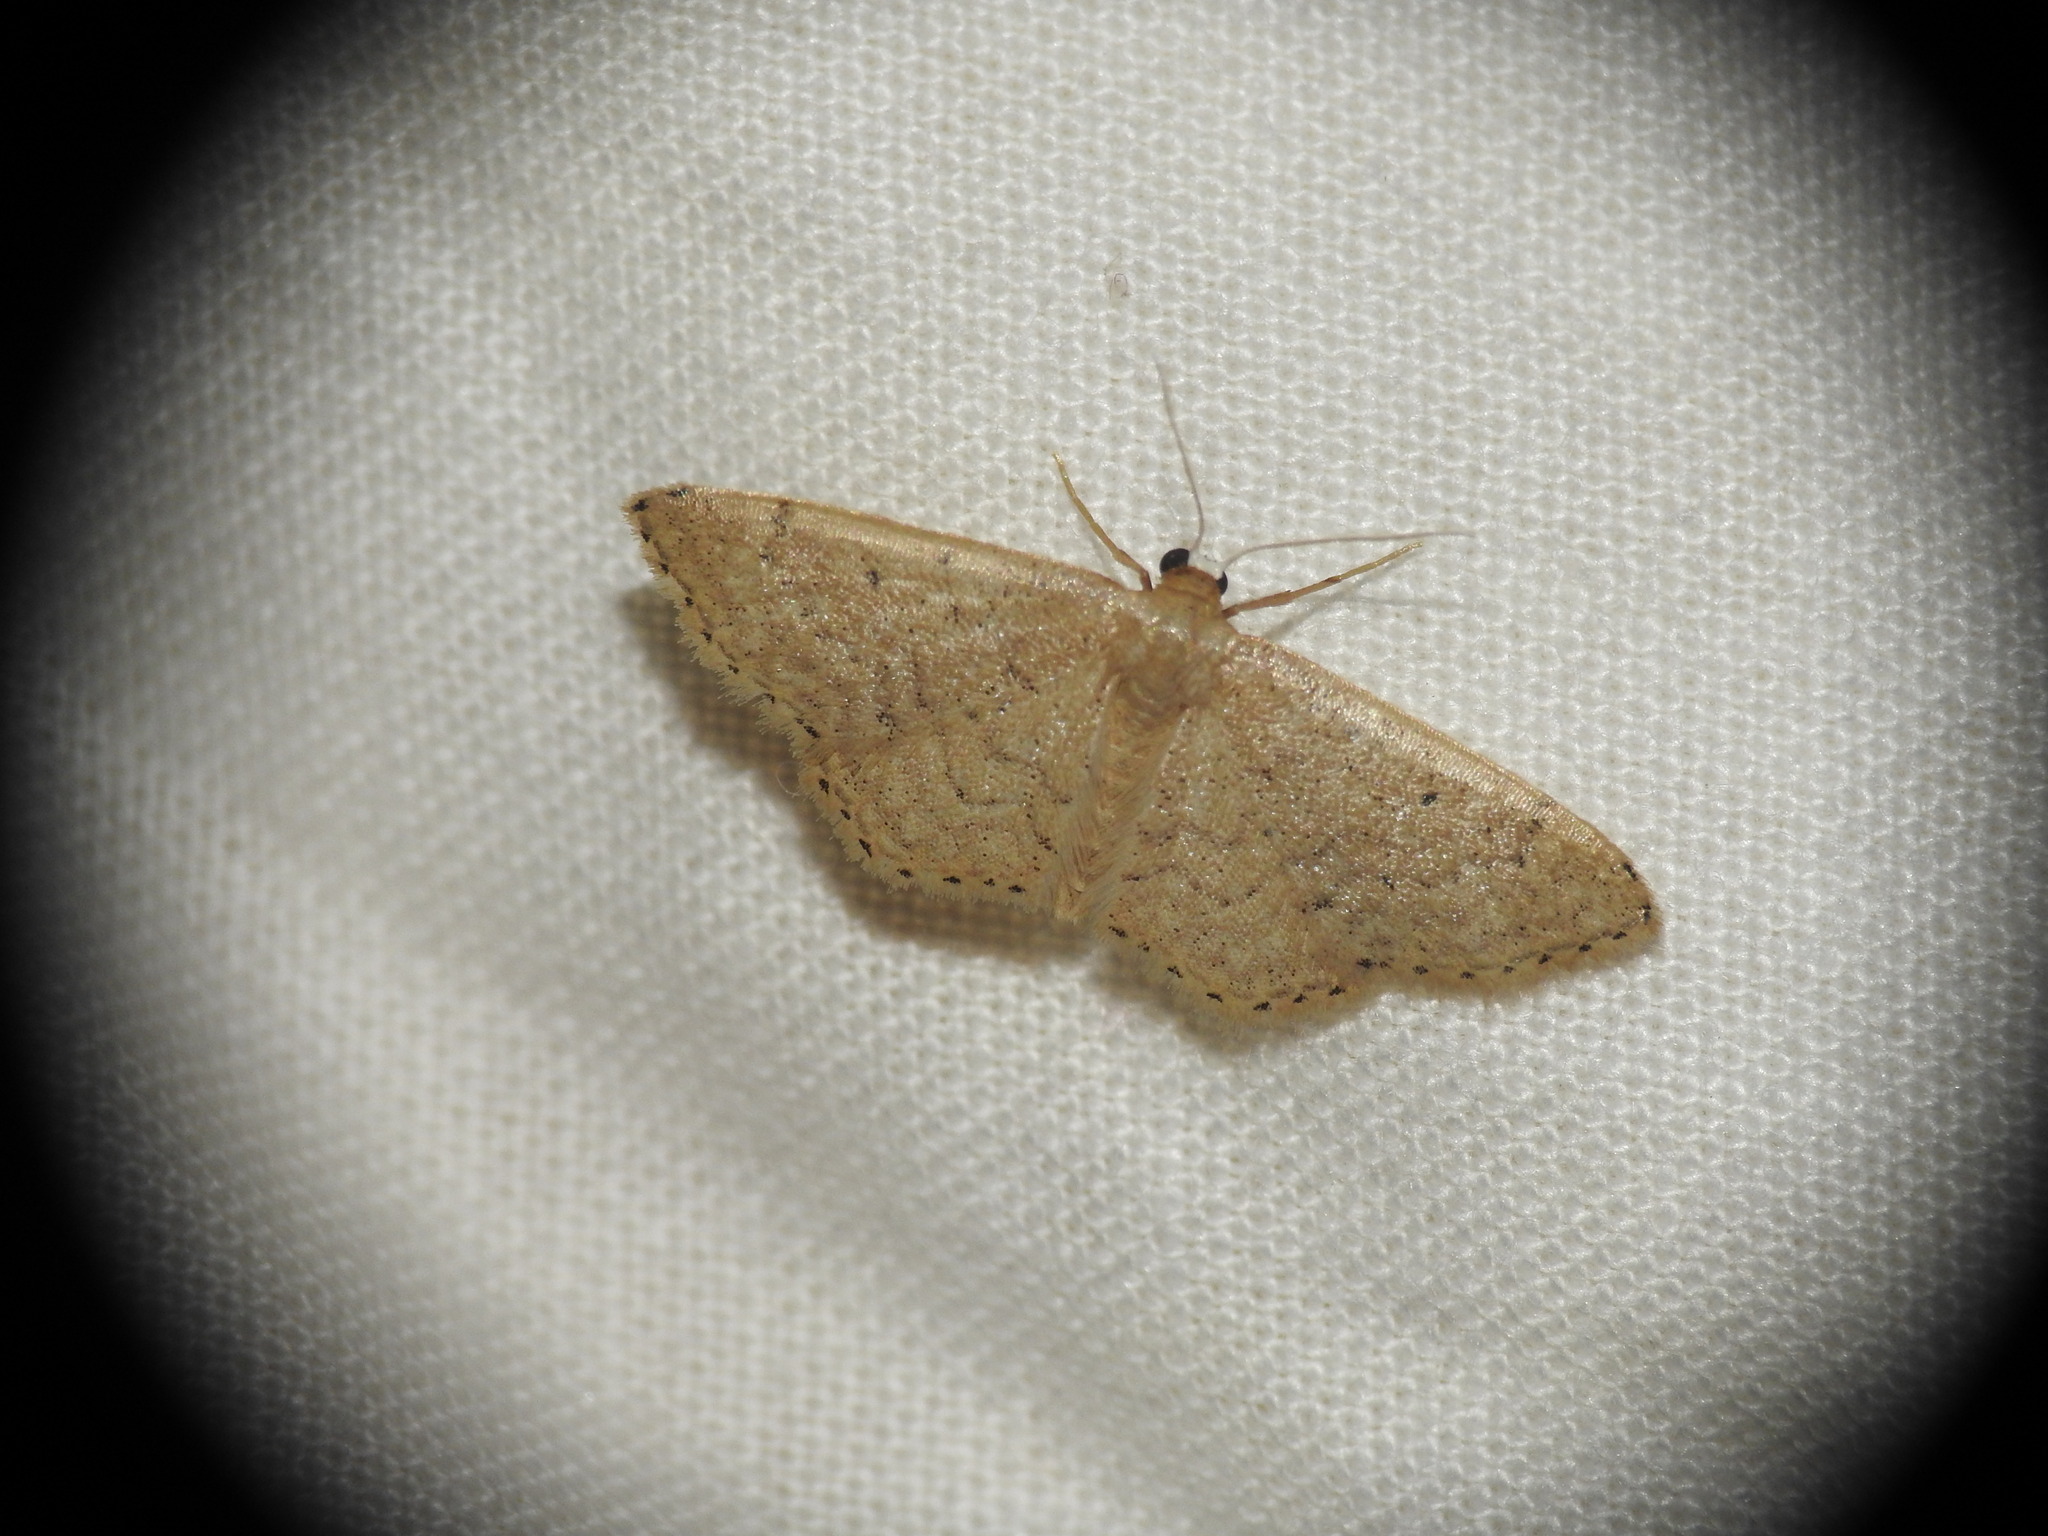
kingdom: Animalia
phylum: Arthropoda
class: Insecta
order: Lepidoptera
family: Geometridae
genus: Idaea
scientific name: Idaea obsoletaria
